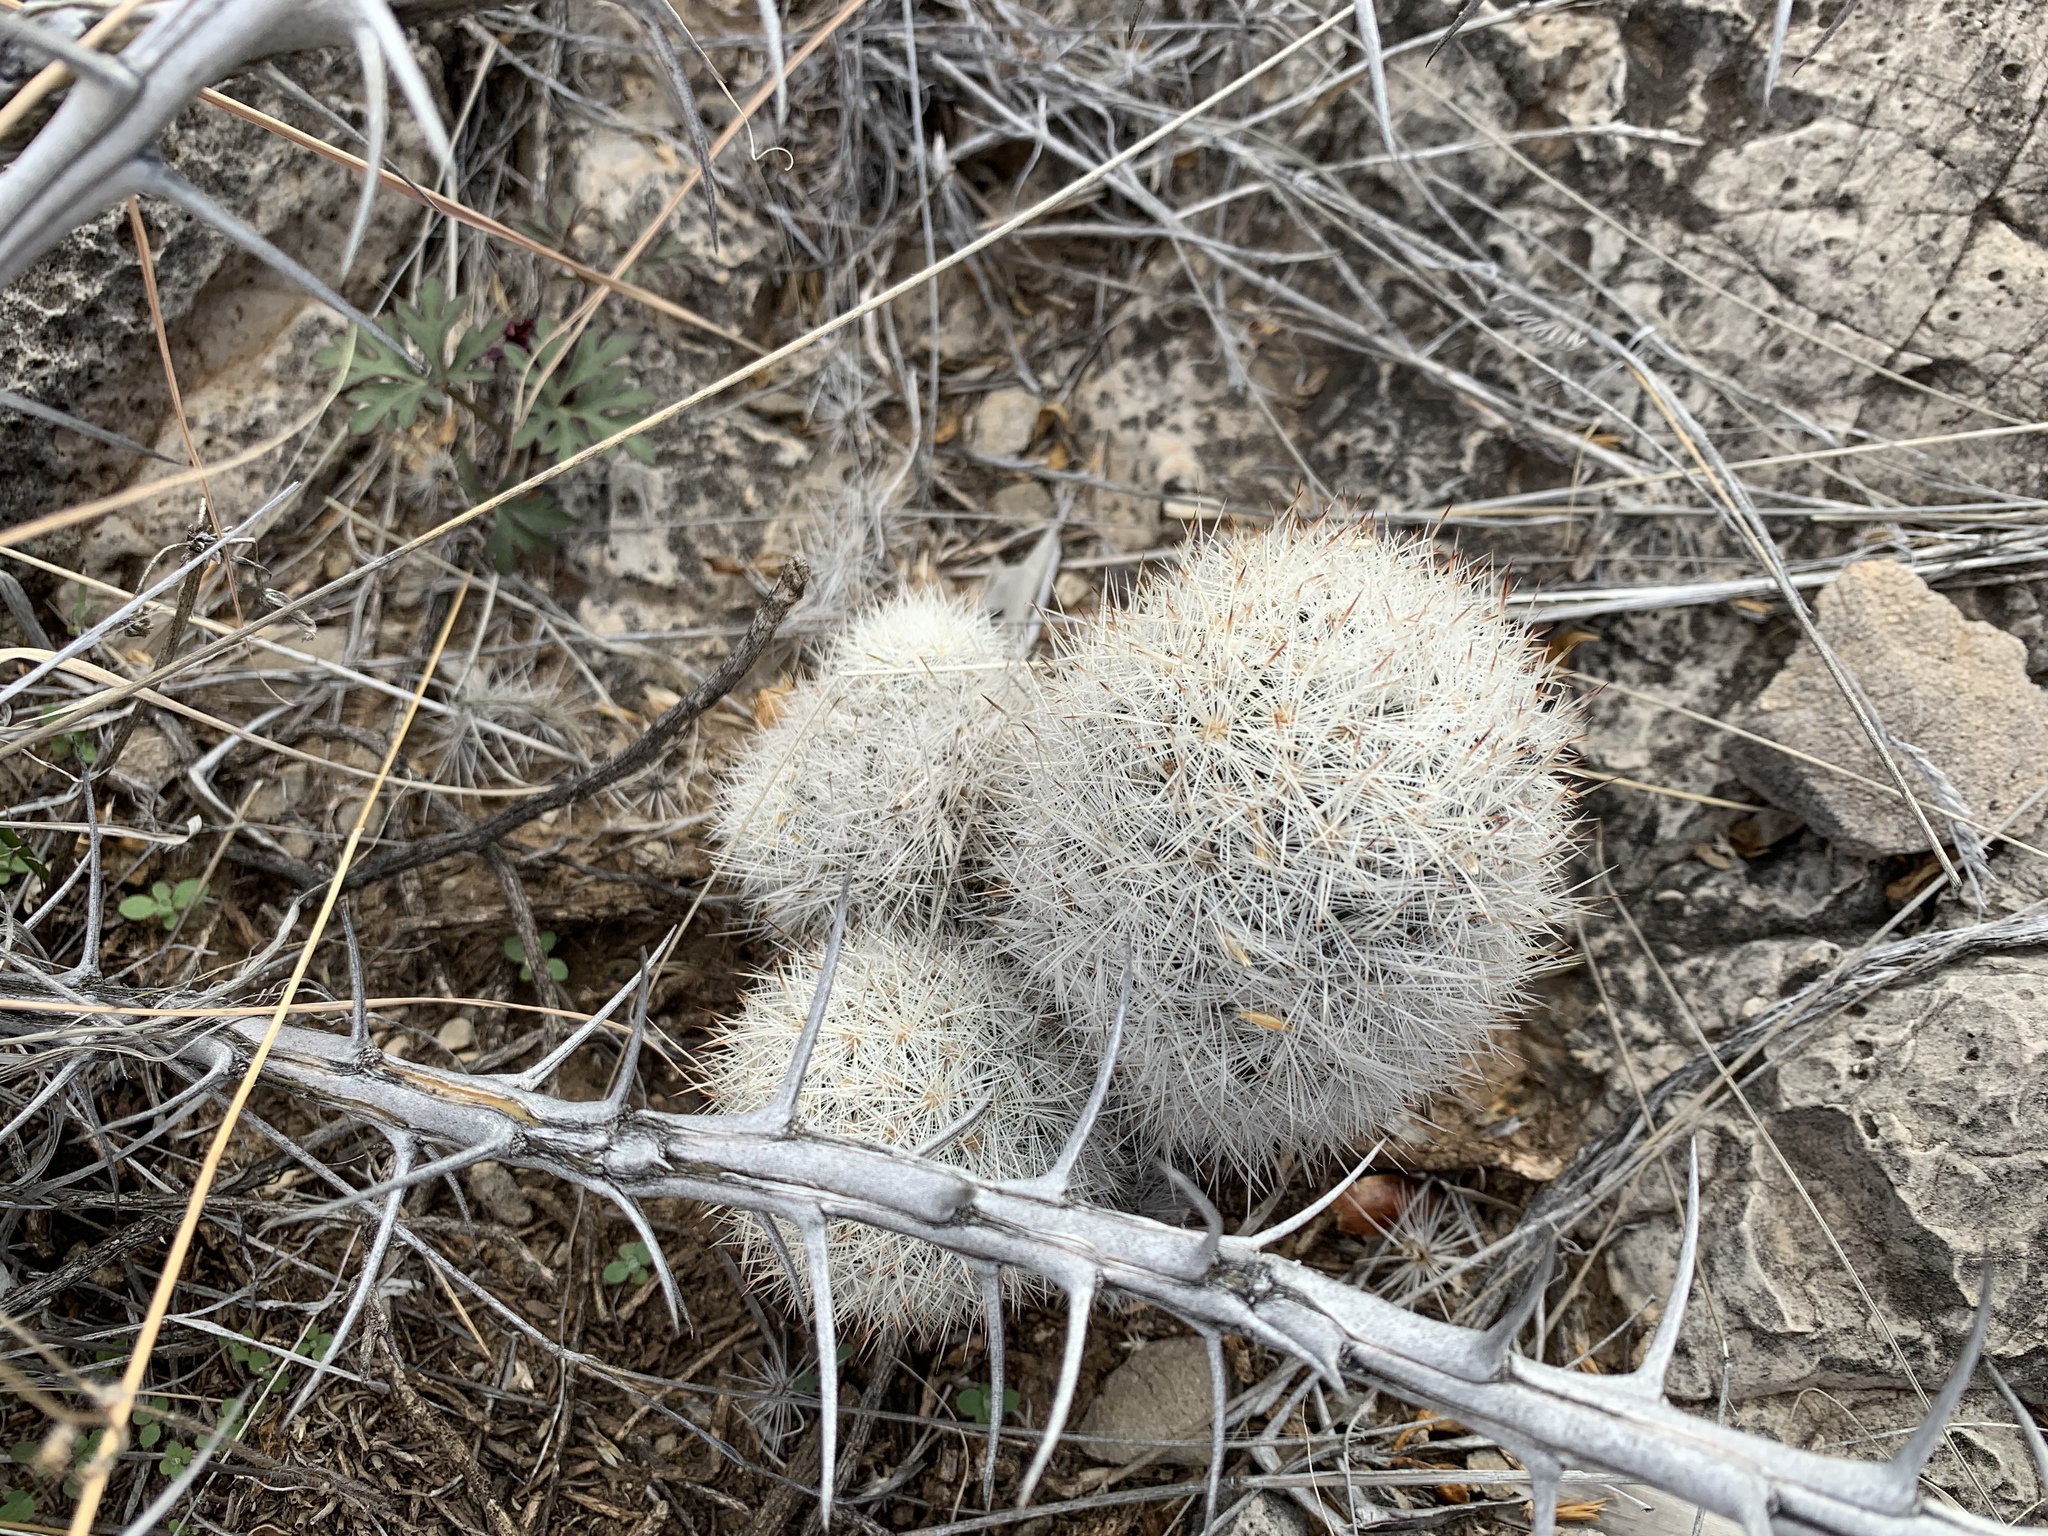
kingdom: Plantae
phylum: Tracheophyta
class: Magnoliopsida
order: Caryophyllales
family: Cactaceae
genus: Pelecyphora
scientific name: Pelecyphora sneedii
